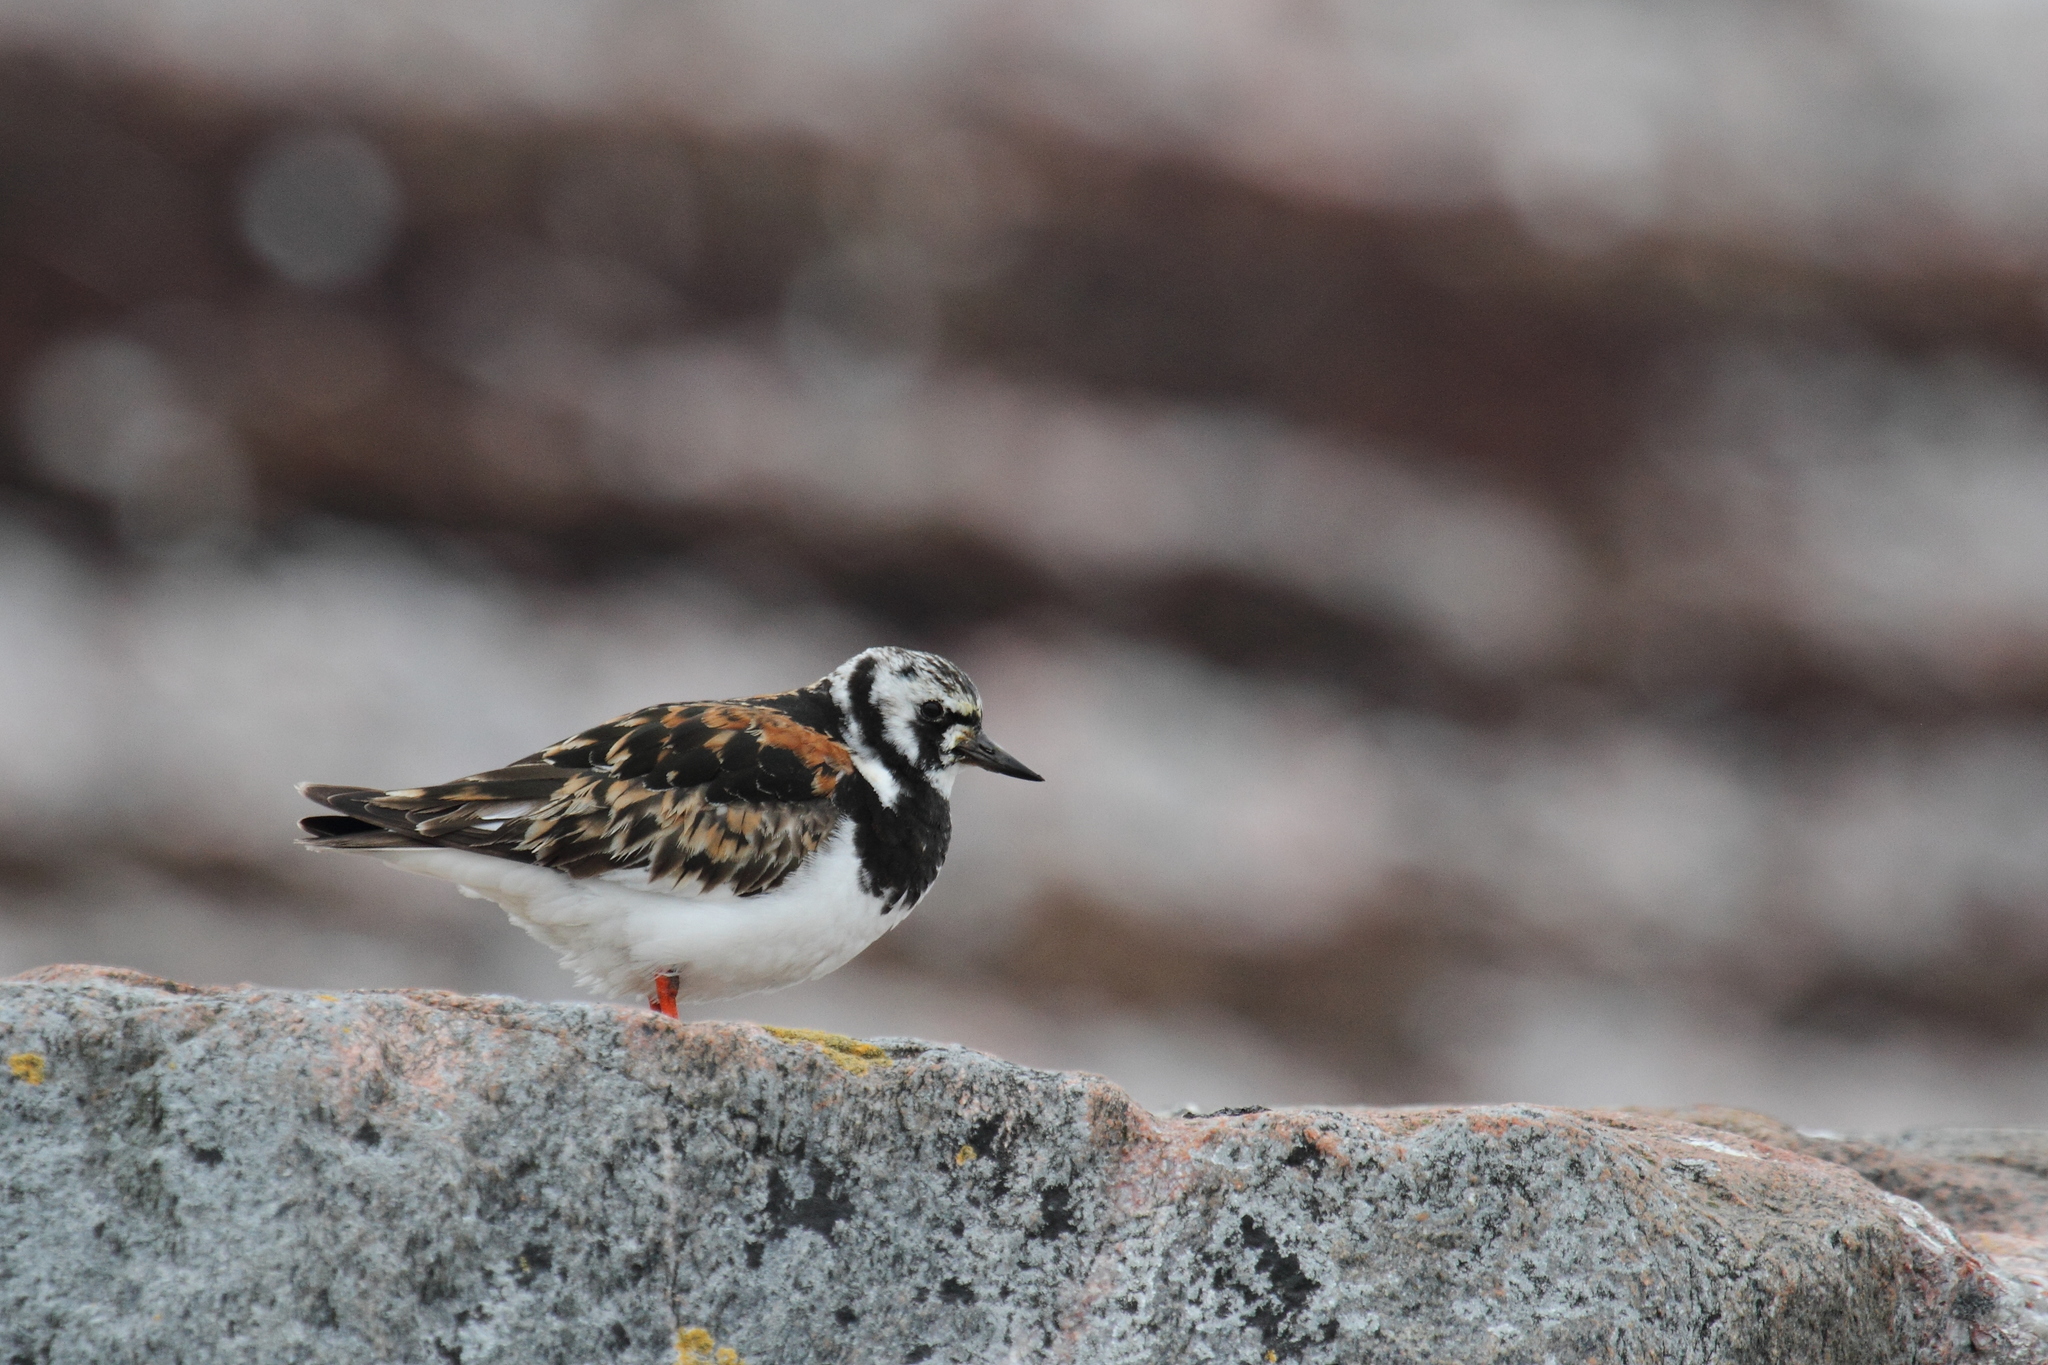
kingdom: Animalia
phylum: Chordata
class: Aves
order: Charadriiformes
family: Scolopacidae
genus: Arenaria
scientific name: Arenaria interpres
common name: Ruddy turnstone
